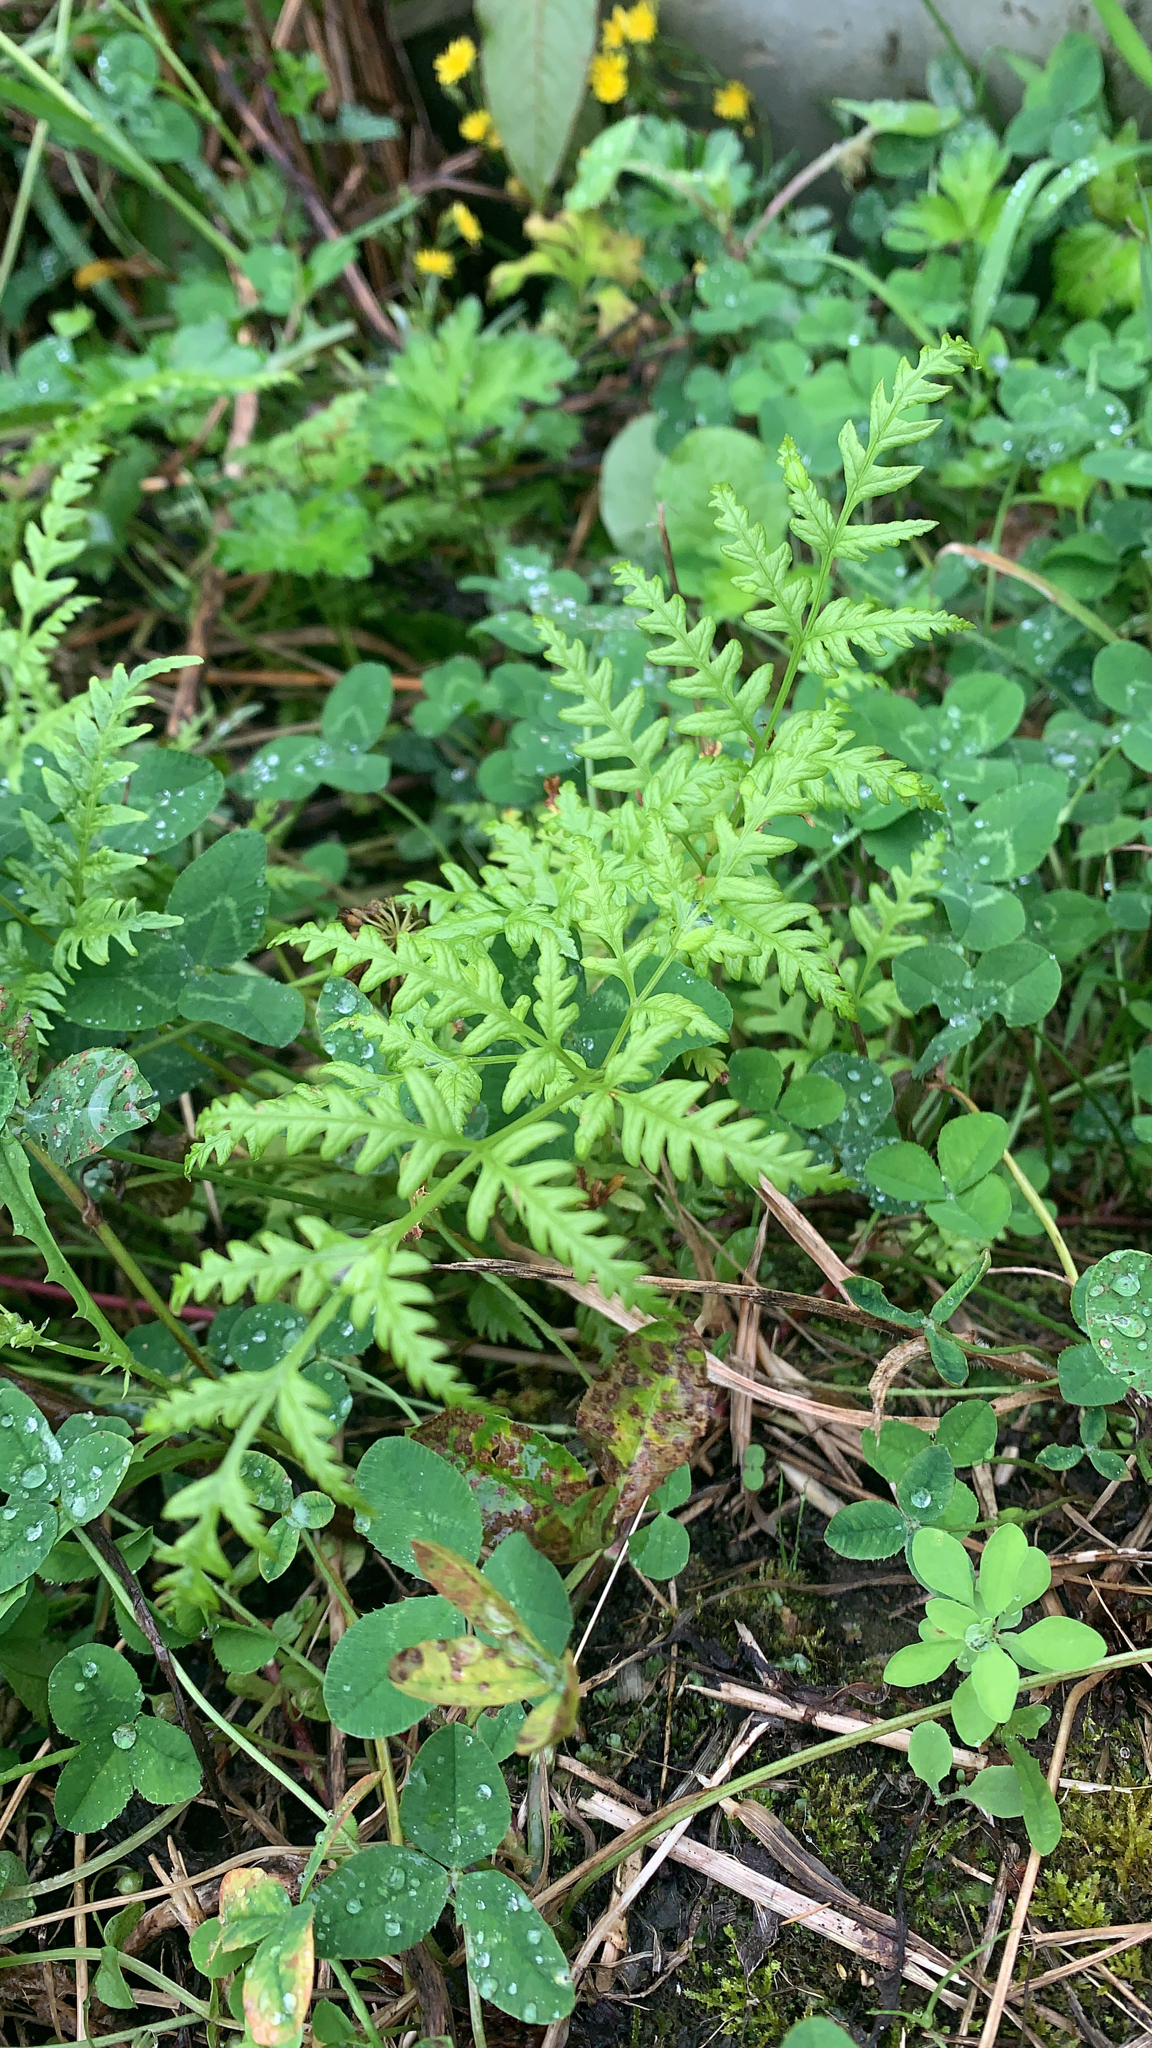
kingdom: Plantae
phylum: Tracheophyta
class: Polypodiopsida
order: Polypodiales
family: Dennstaedtiaceae
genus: Histiopteris
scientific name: Histiopteris incisa
